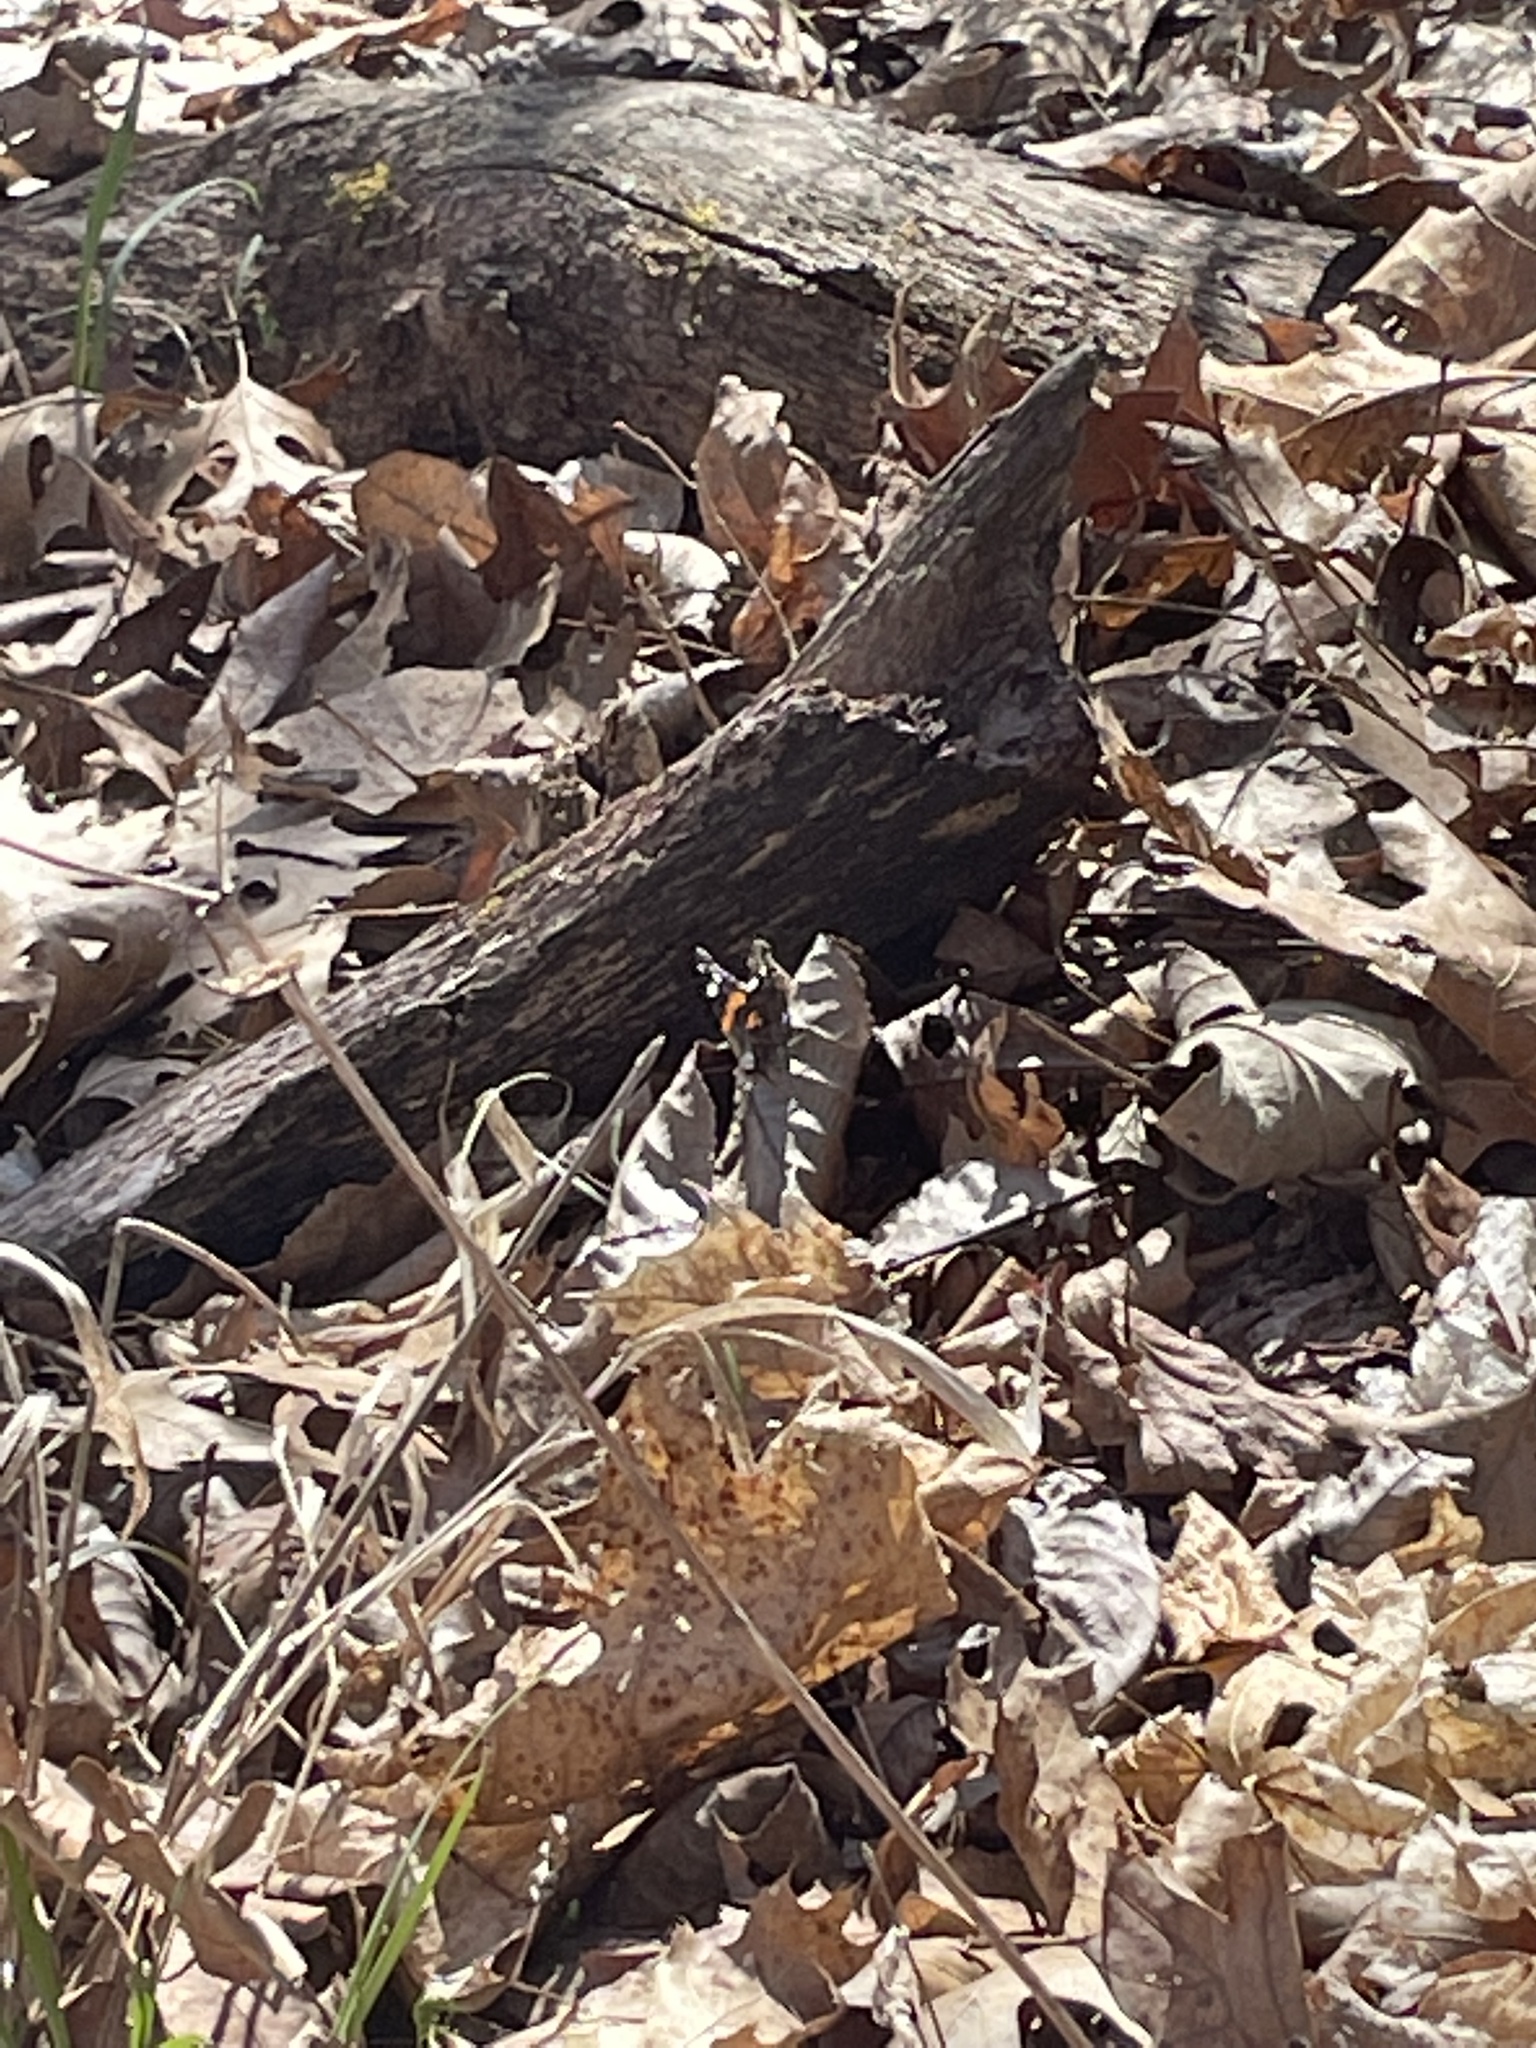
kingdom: Animalia
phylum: Arthropoda
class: Insecta
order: Lepidoptera
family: Nymphalidae
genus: Vanessa
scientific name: Vanessa atalanta
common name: Red admiral
